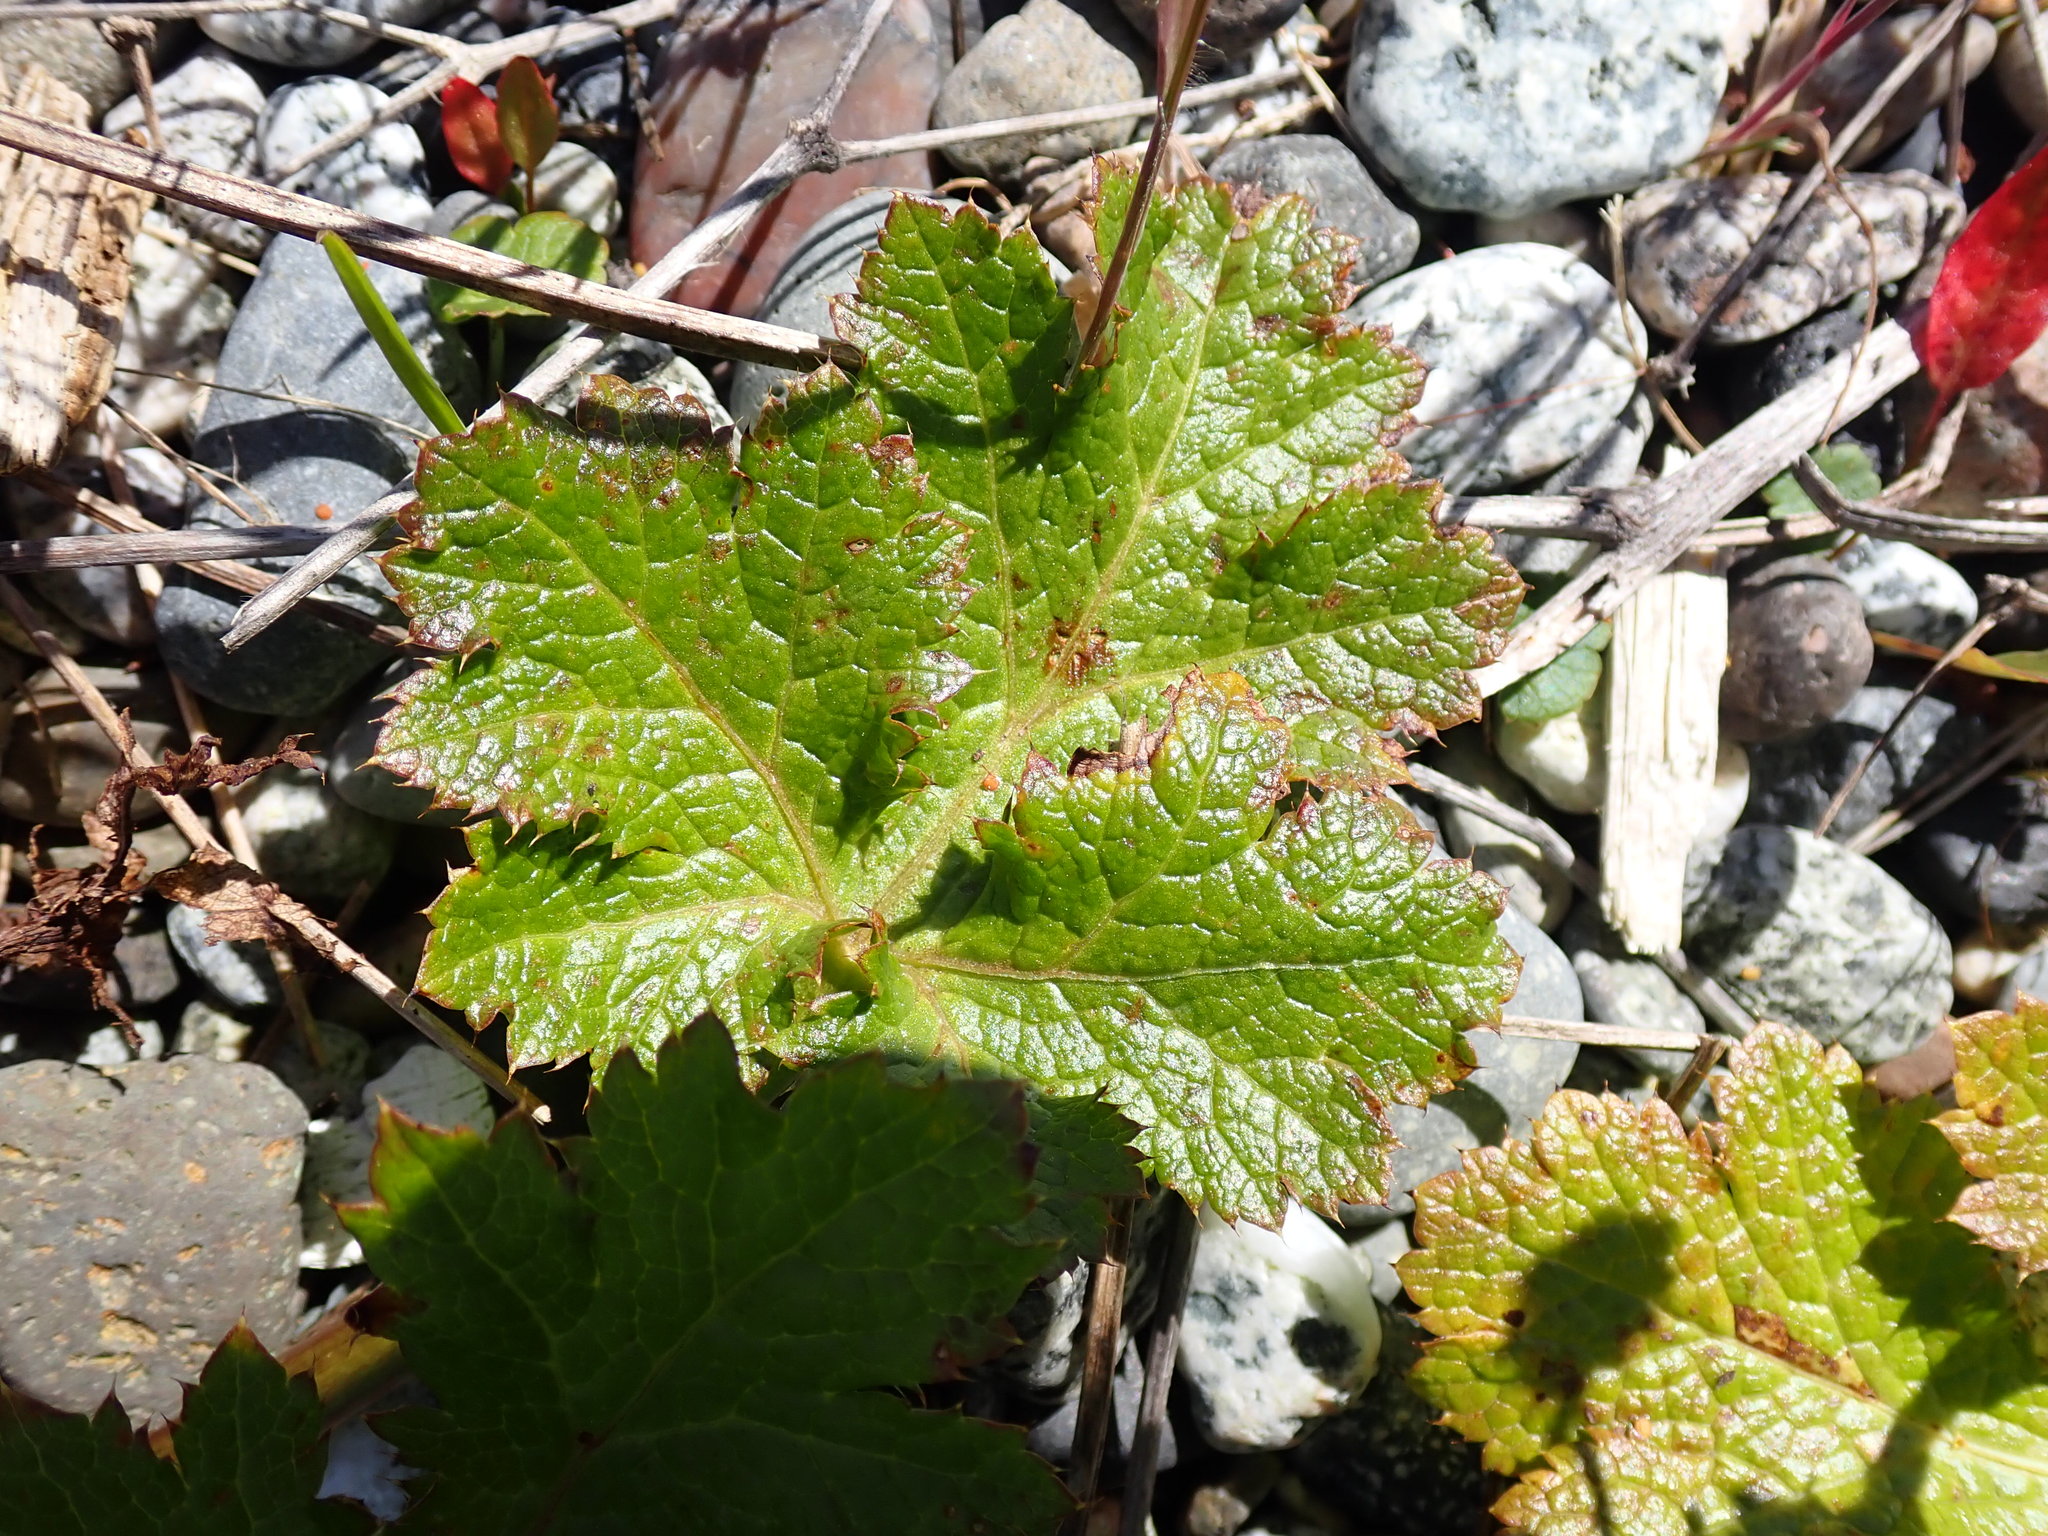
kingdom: Plantae
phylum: Tracheophyta
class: Magnoliopsida
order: Apiales
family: Apiaceae
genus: Sanicula
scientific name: Sanicula crassicaulis
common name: Western snakeroot
